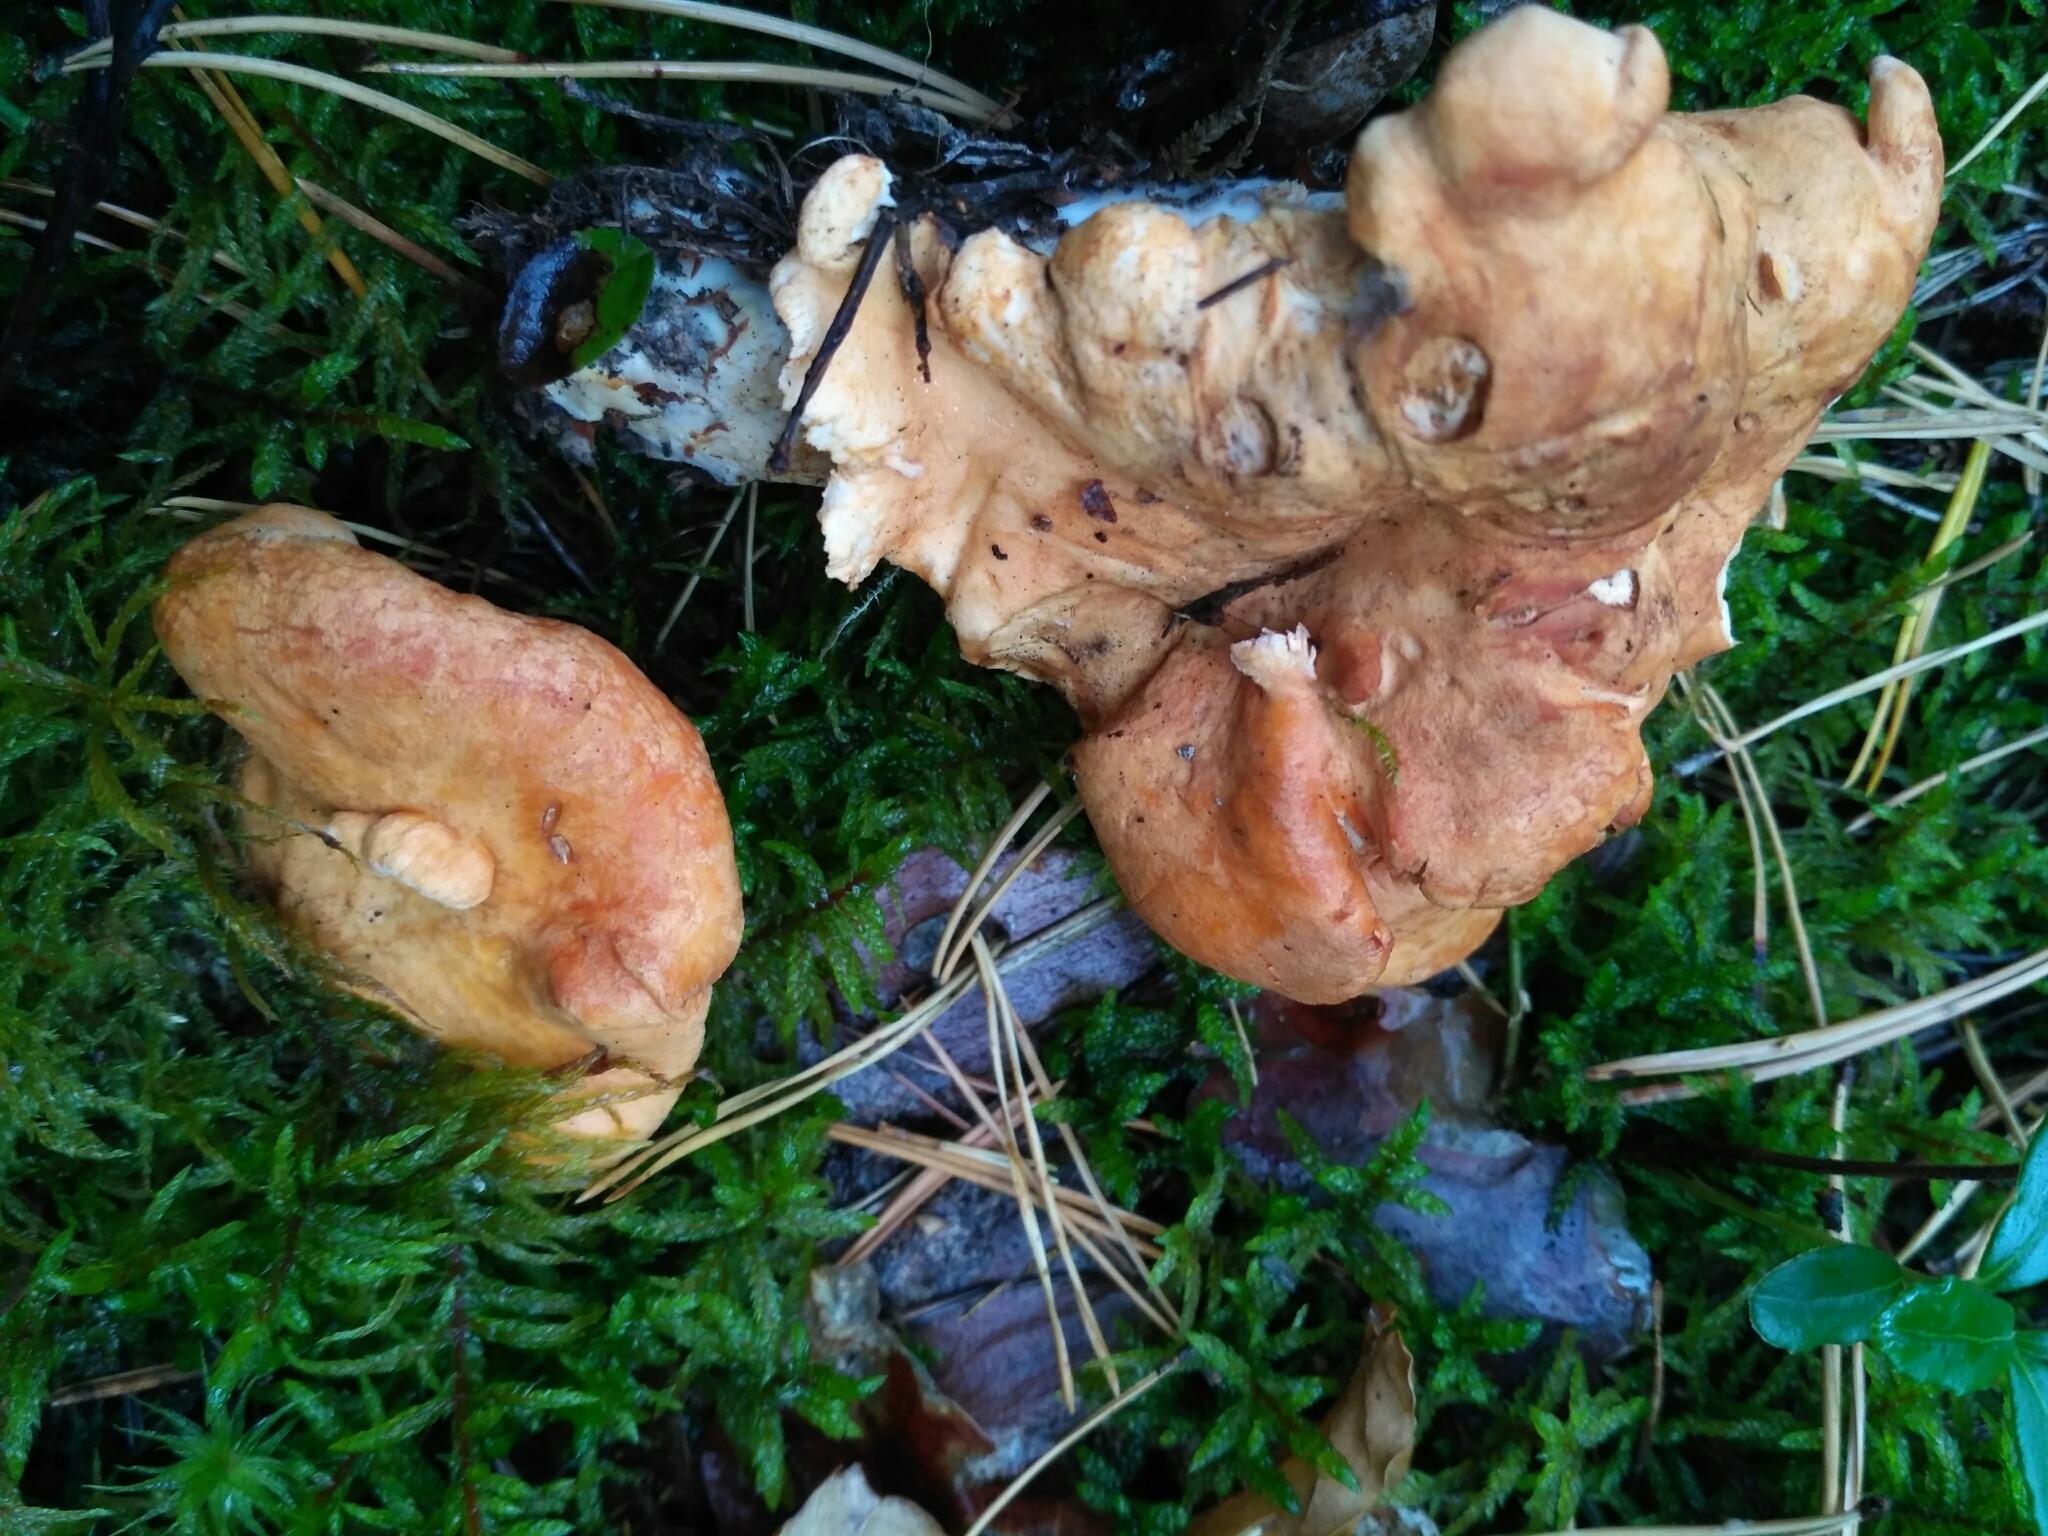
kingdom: Fungi
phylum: Basidiomycota
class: Agaricomycetes
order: Cantharellales
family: Hydnaceae
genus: Hydnum
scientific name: Hydnum rufescens
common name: Terracotta hedgehog
